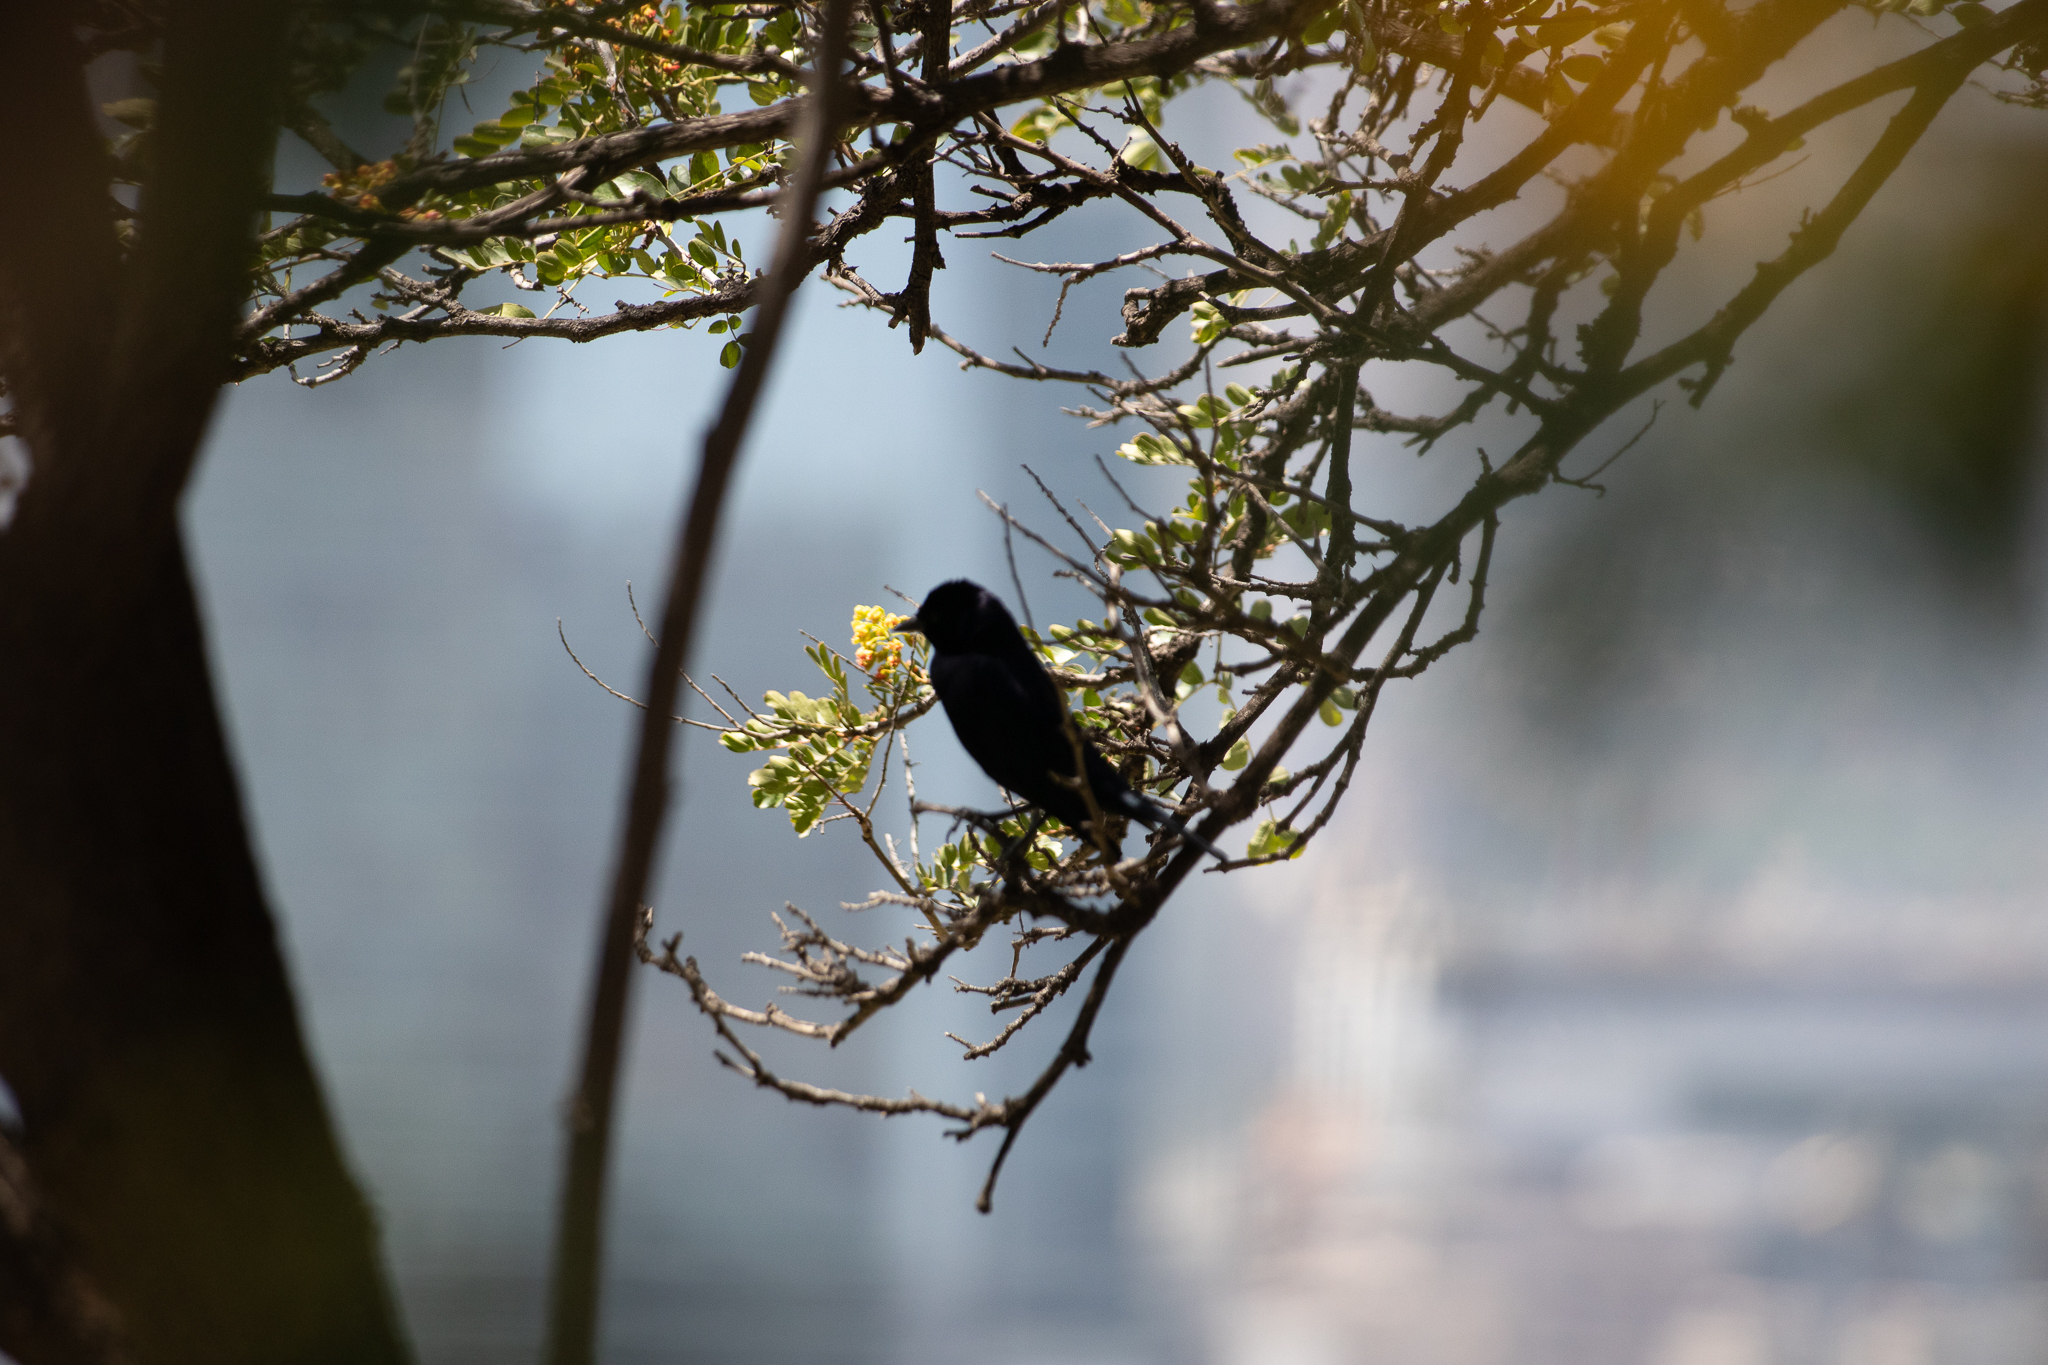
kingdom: Animalia
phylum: Chordata
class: Aves
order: Passeriformes
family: Icteridae
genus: Molothrus
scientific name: Molothrus bonariensis
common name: Shiny cowbird
